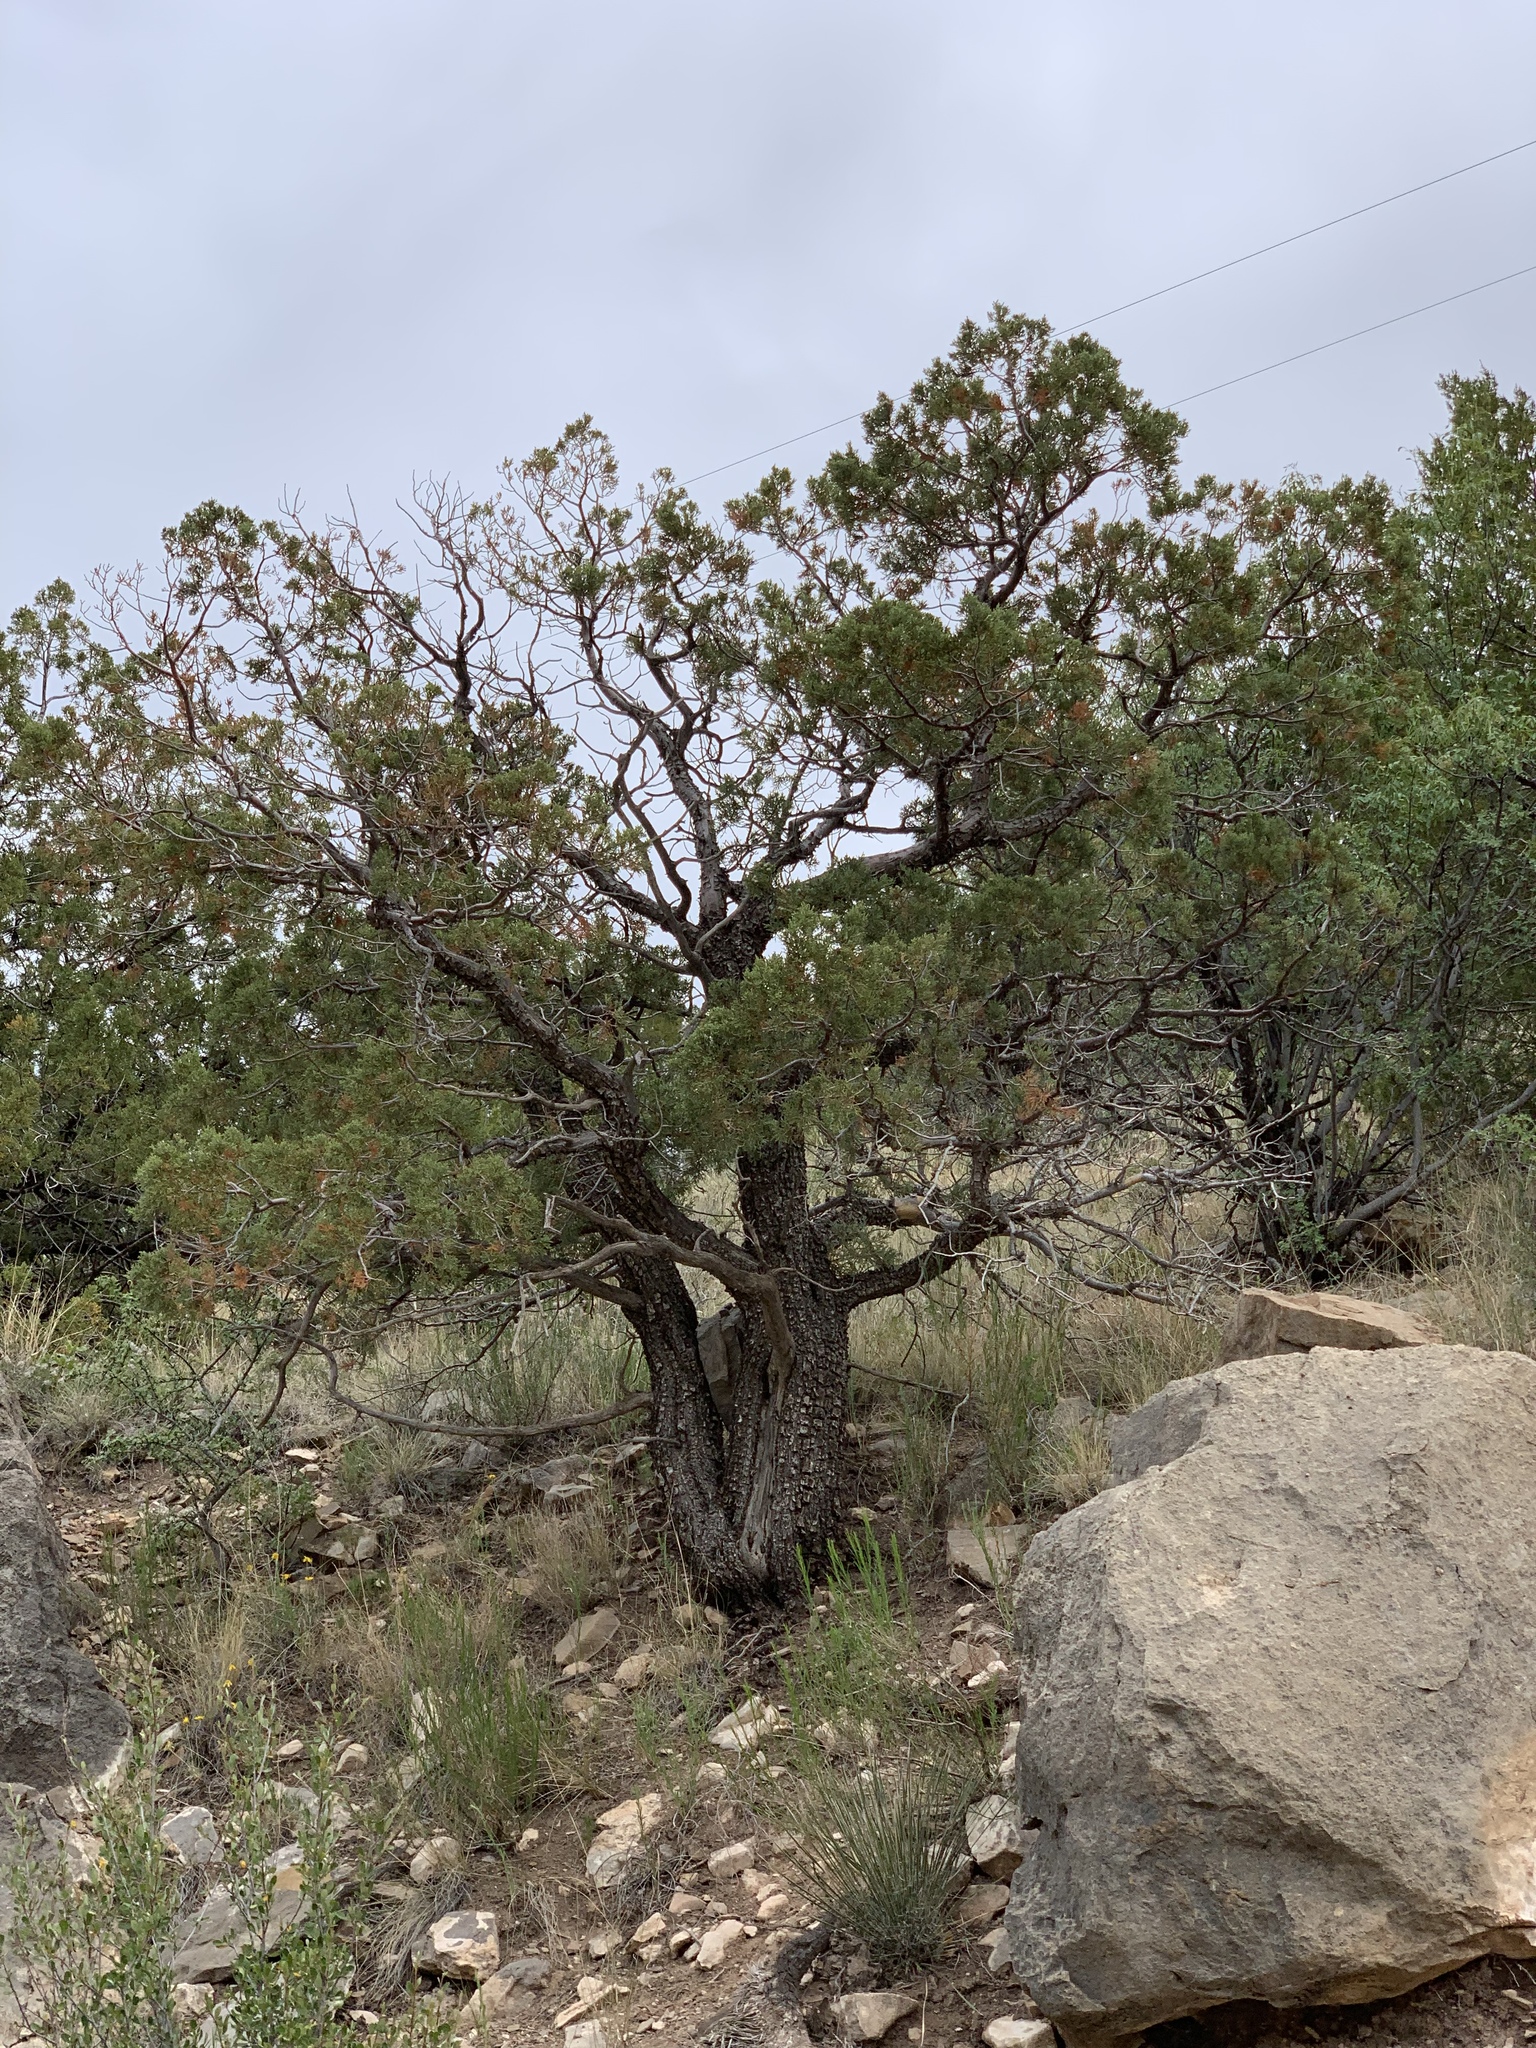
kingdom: Plantae
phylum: Tracheophyta
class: Pinopsida
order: Pinales
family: Cupressaceae
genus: Juniperus
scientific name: Juniperus deppeana
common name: Alligator juniper
